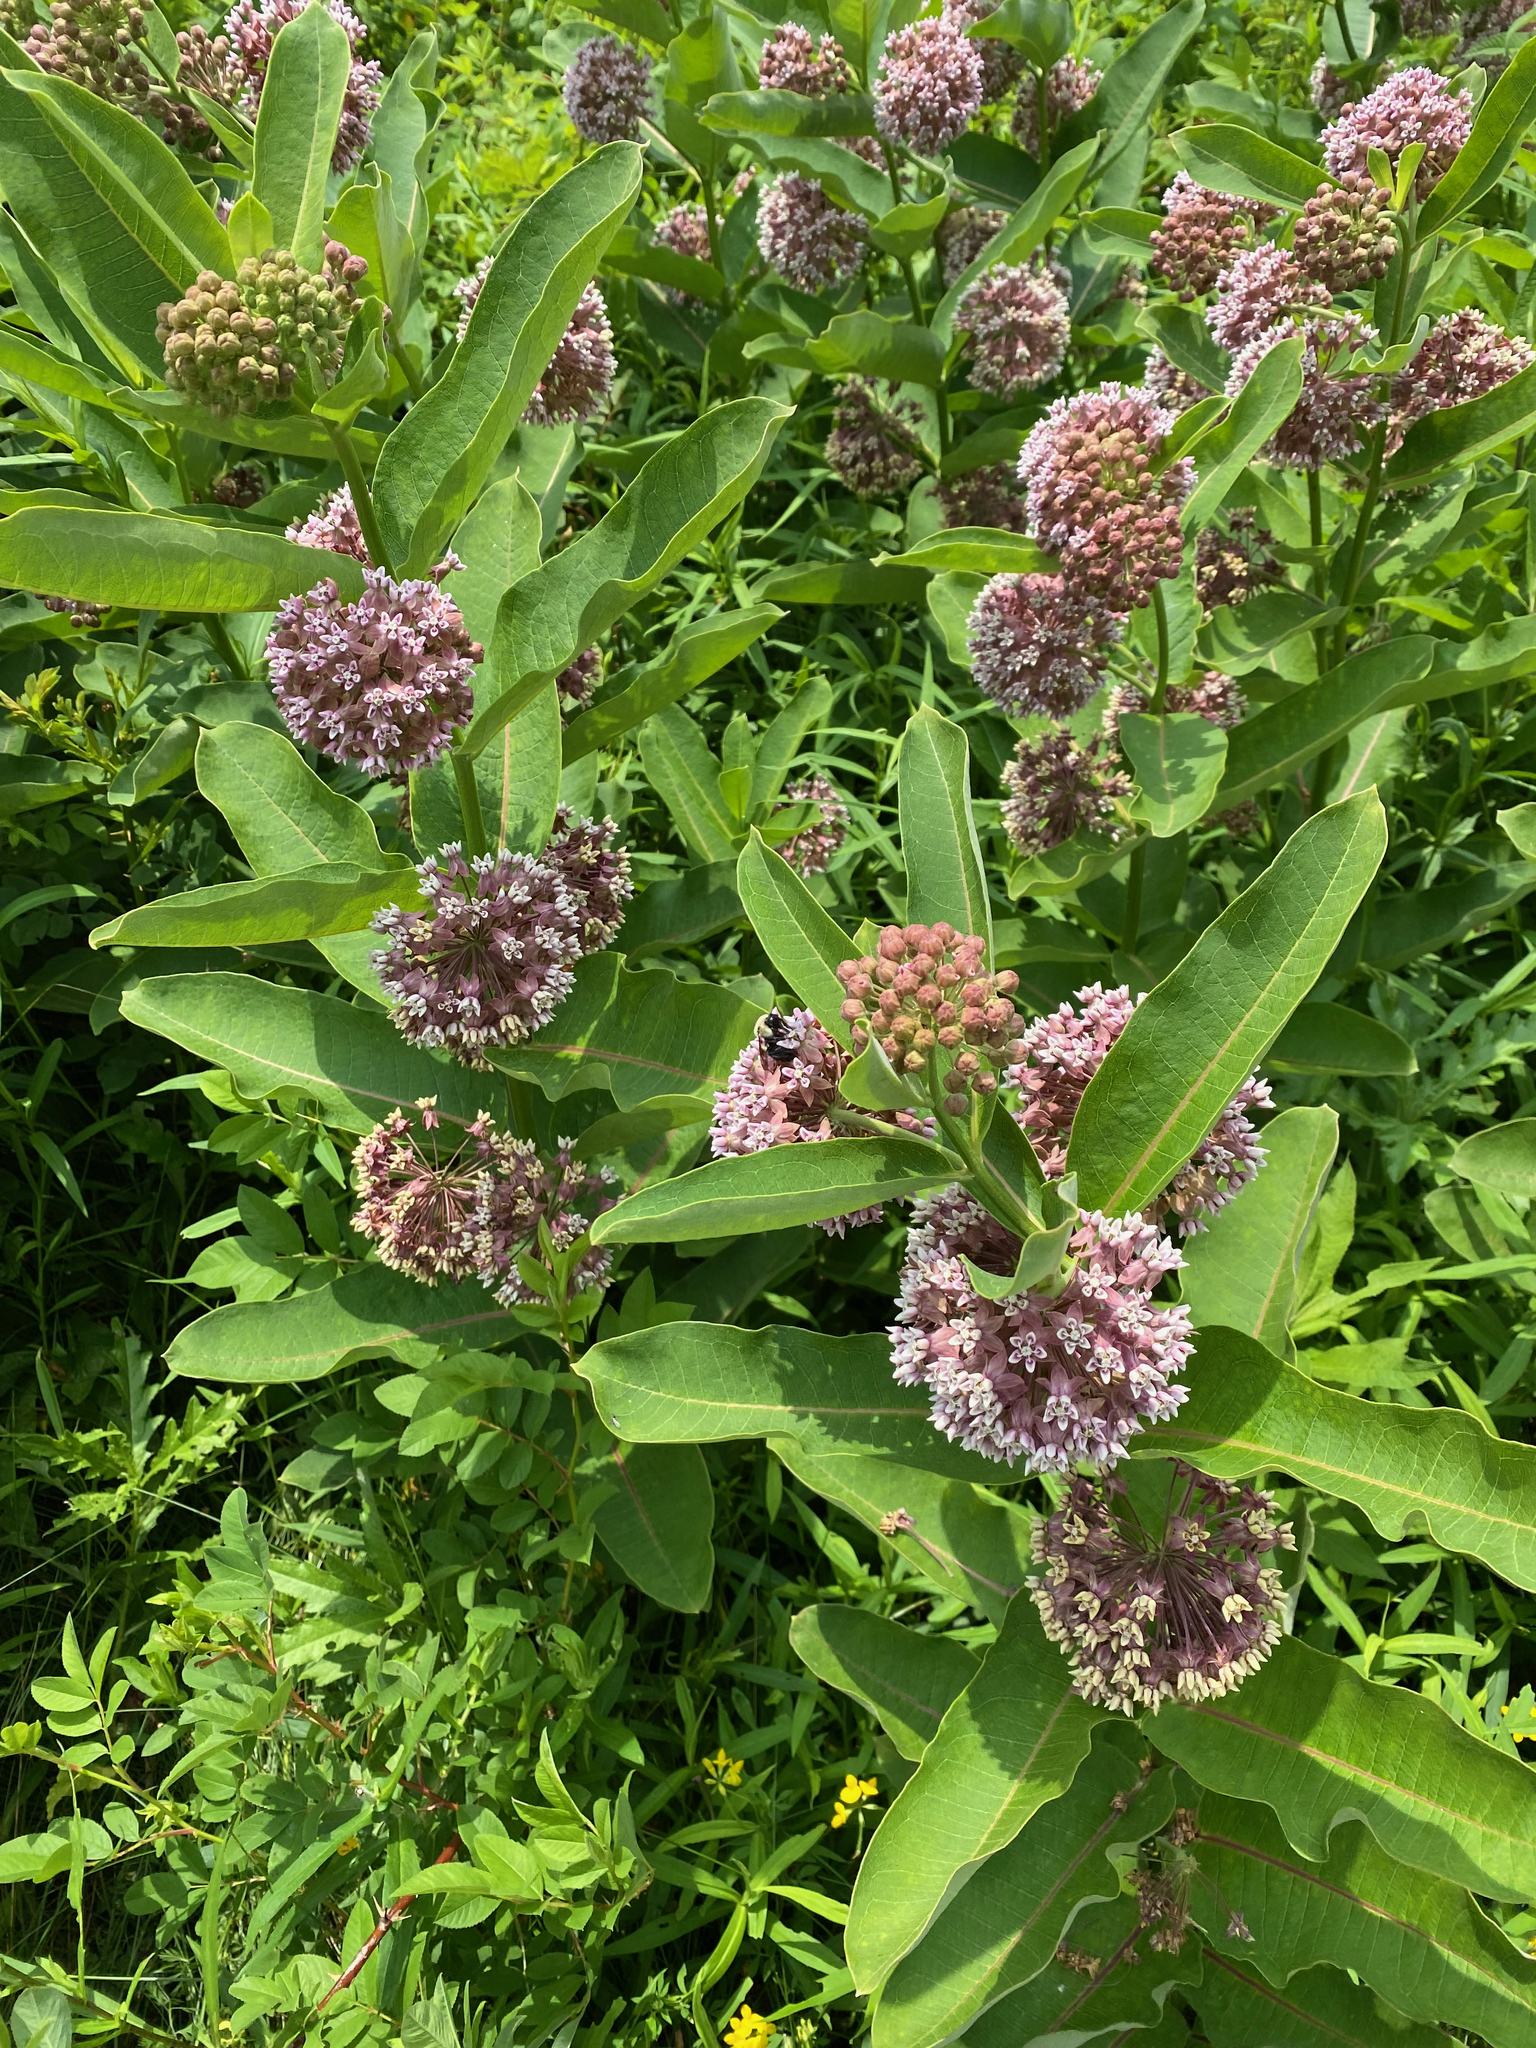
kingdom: Plantae
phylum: Tracheophyta
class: Magnoliopsida
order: Gentianales
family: Apocynaceae
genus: Asclepias
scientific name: Asclepias syriaca
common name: Common milkweed
